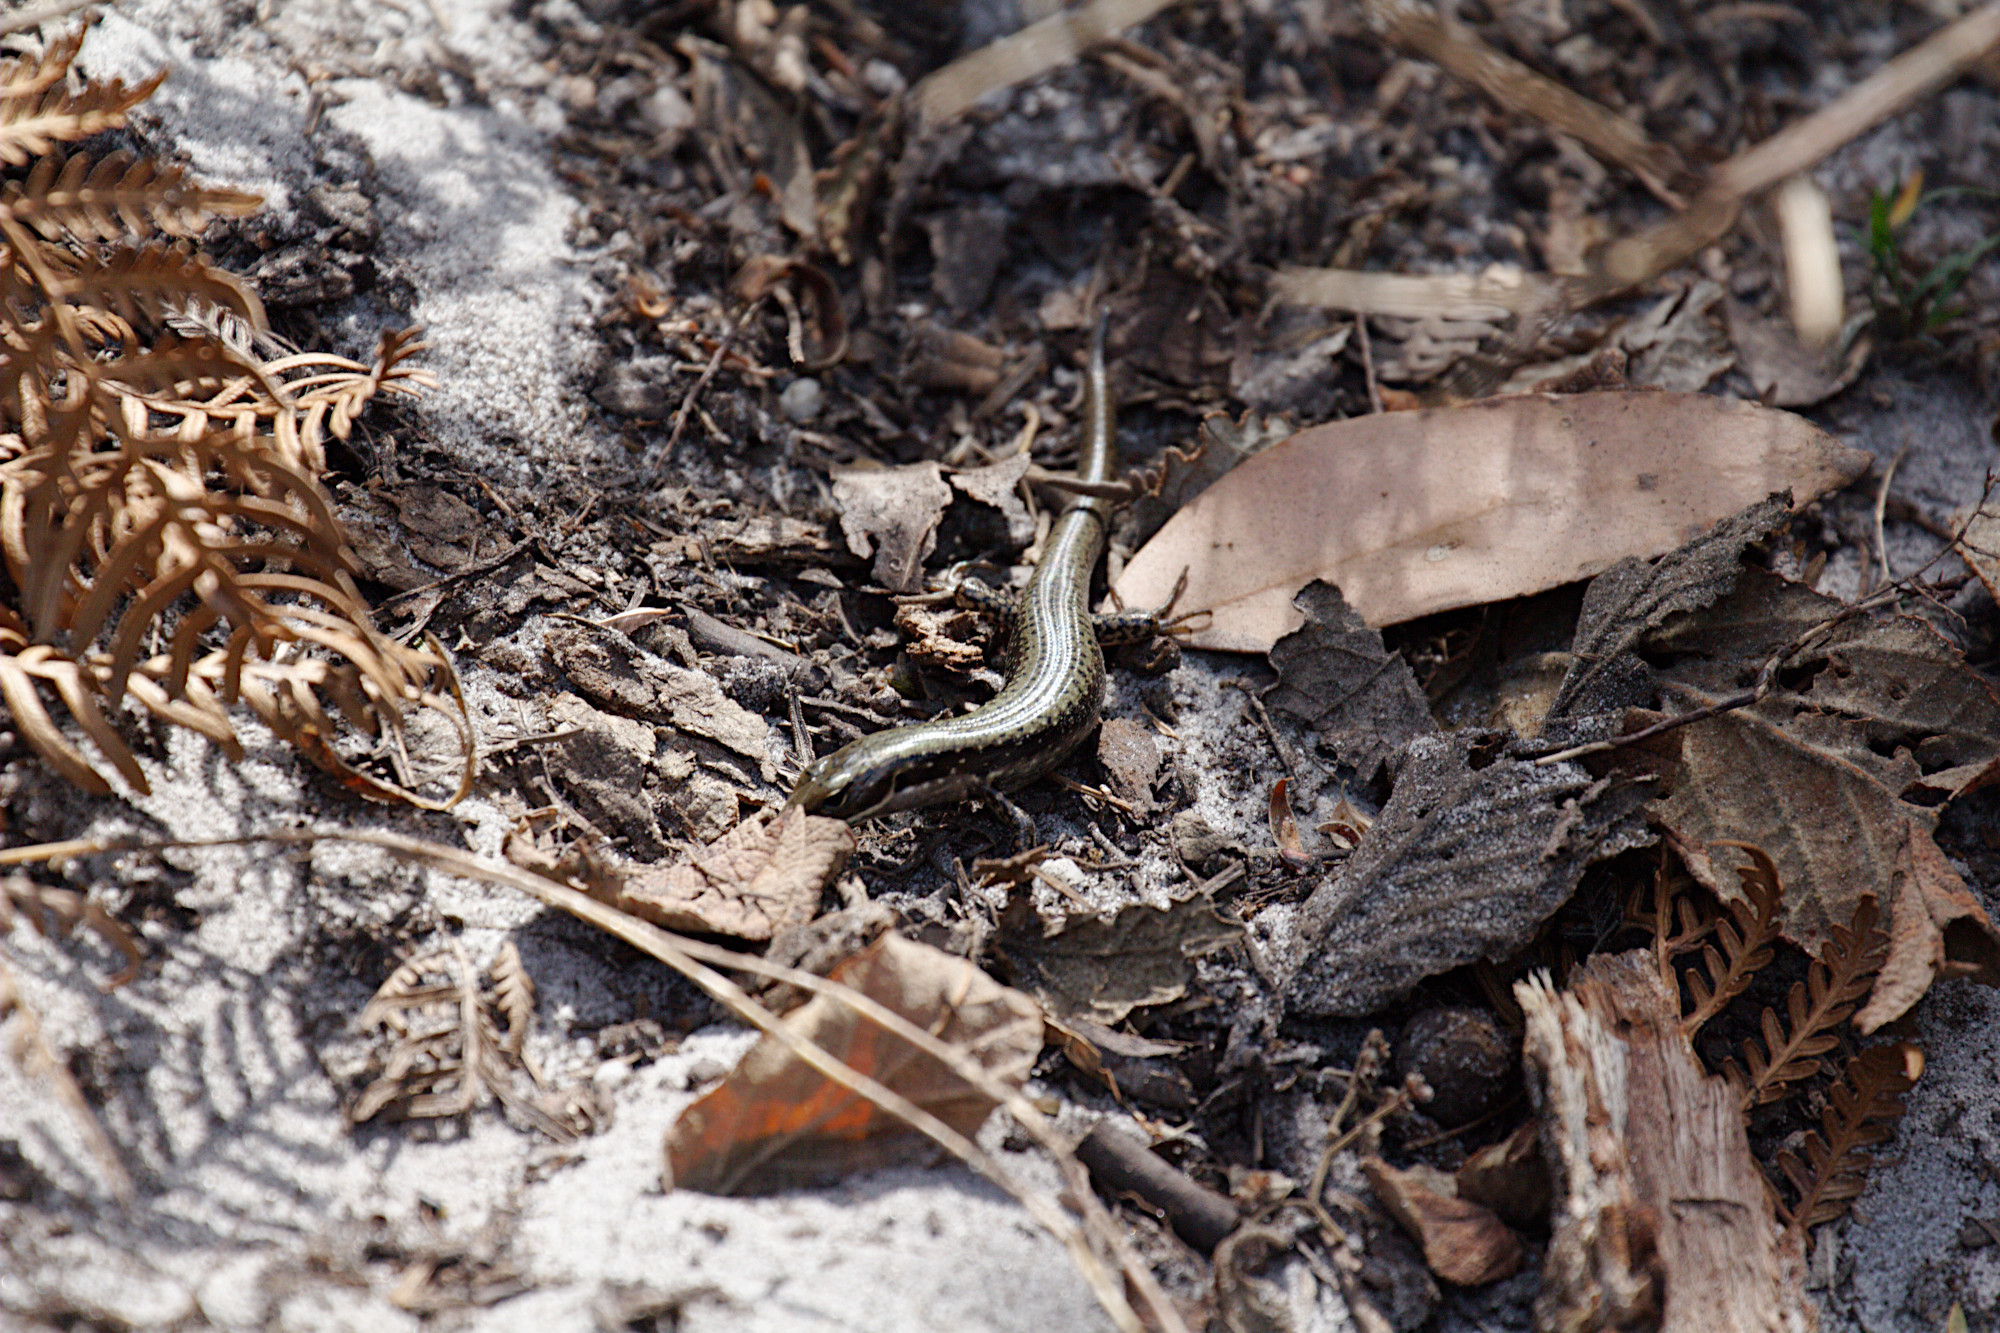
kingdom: Animalia
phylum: Chordata
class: Squamata
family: Scincidae
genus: Eulamprus
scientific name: Eulamprus tympanum
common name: Cool-temperate water-skink
